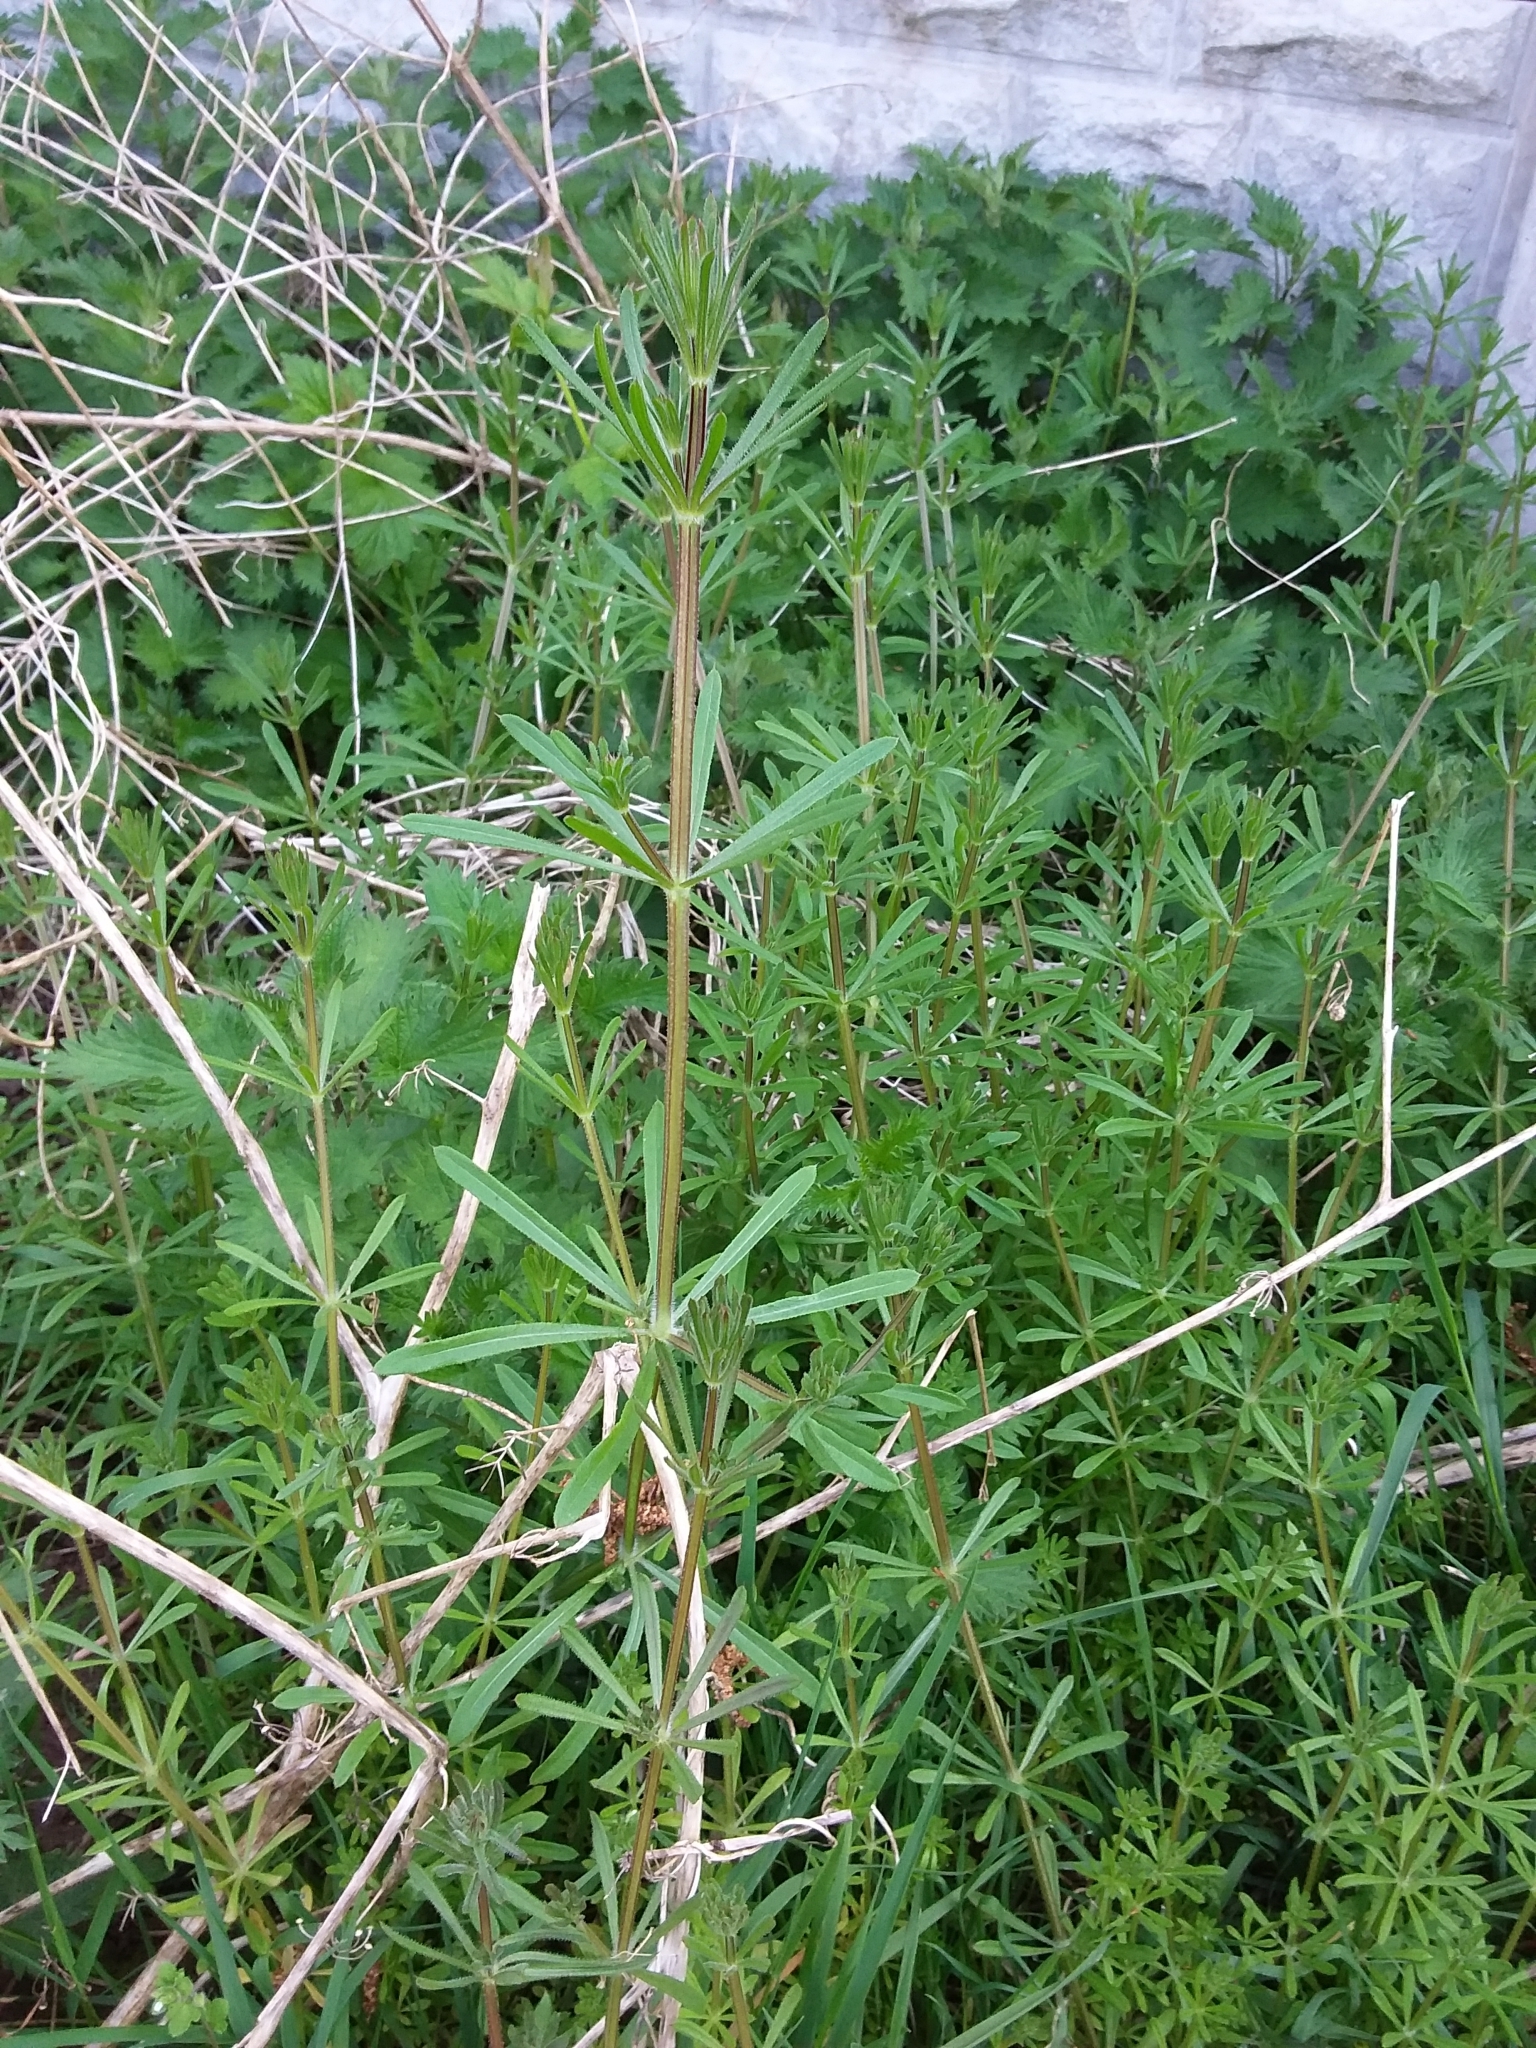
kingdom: Plantae
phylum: Tracheophyta
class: Magnoliopsida
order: Gentianales
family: Rubiaceae
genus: Galium
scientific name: Galium aparine
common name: Cleavers
